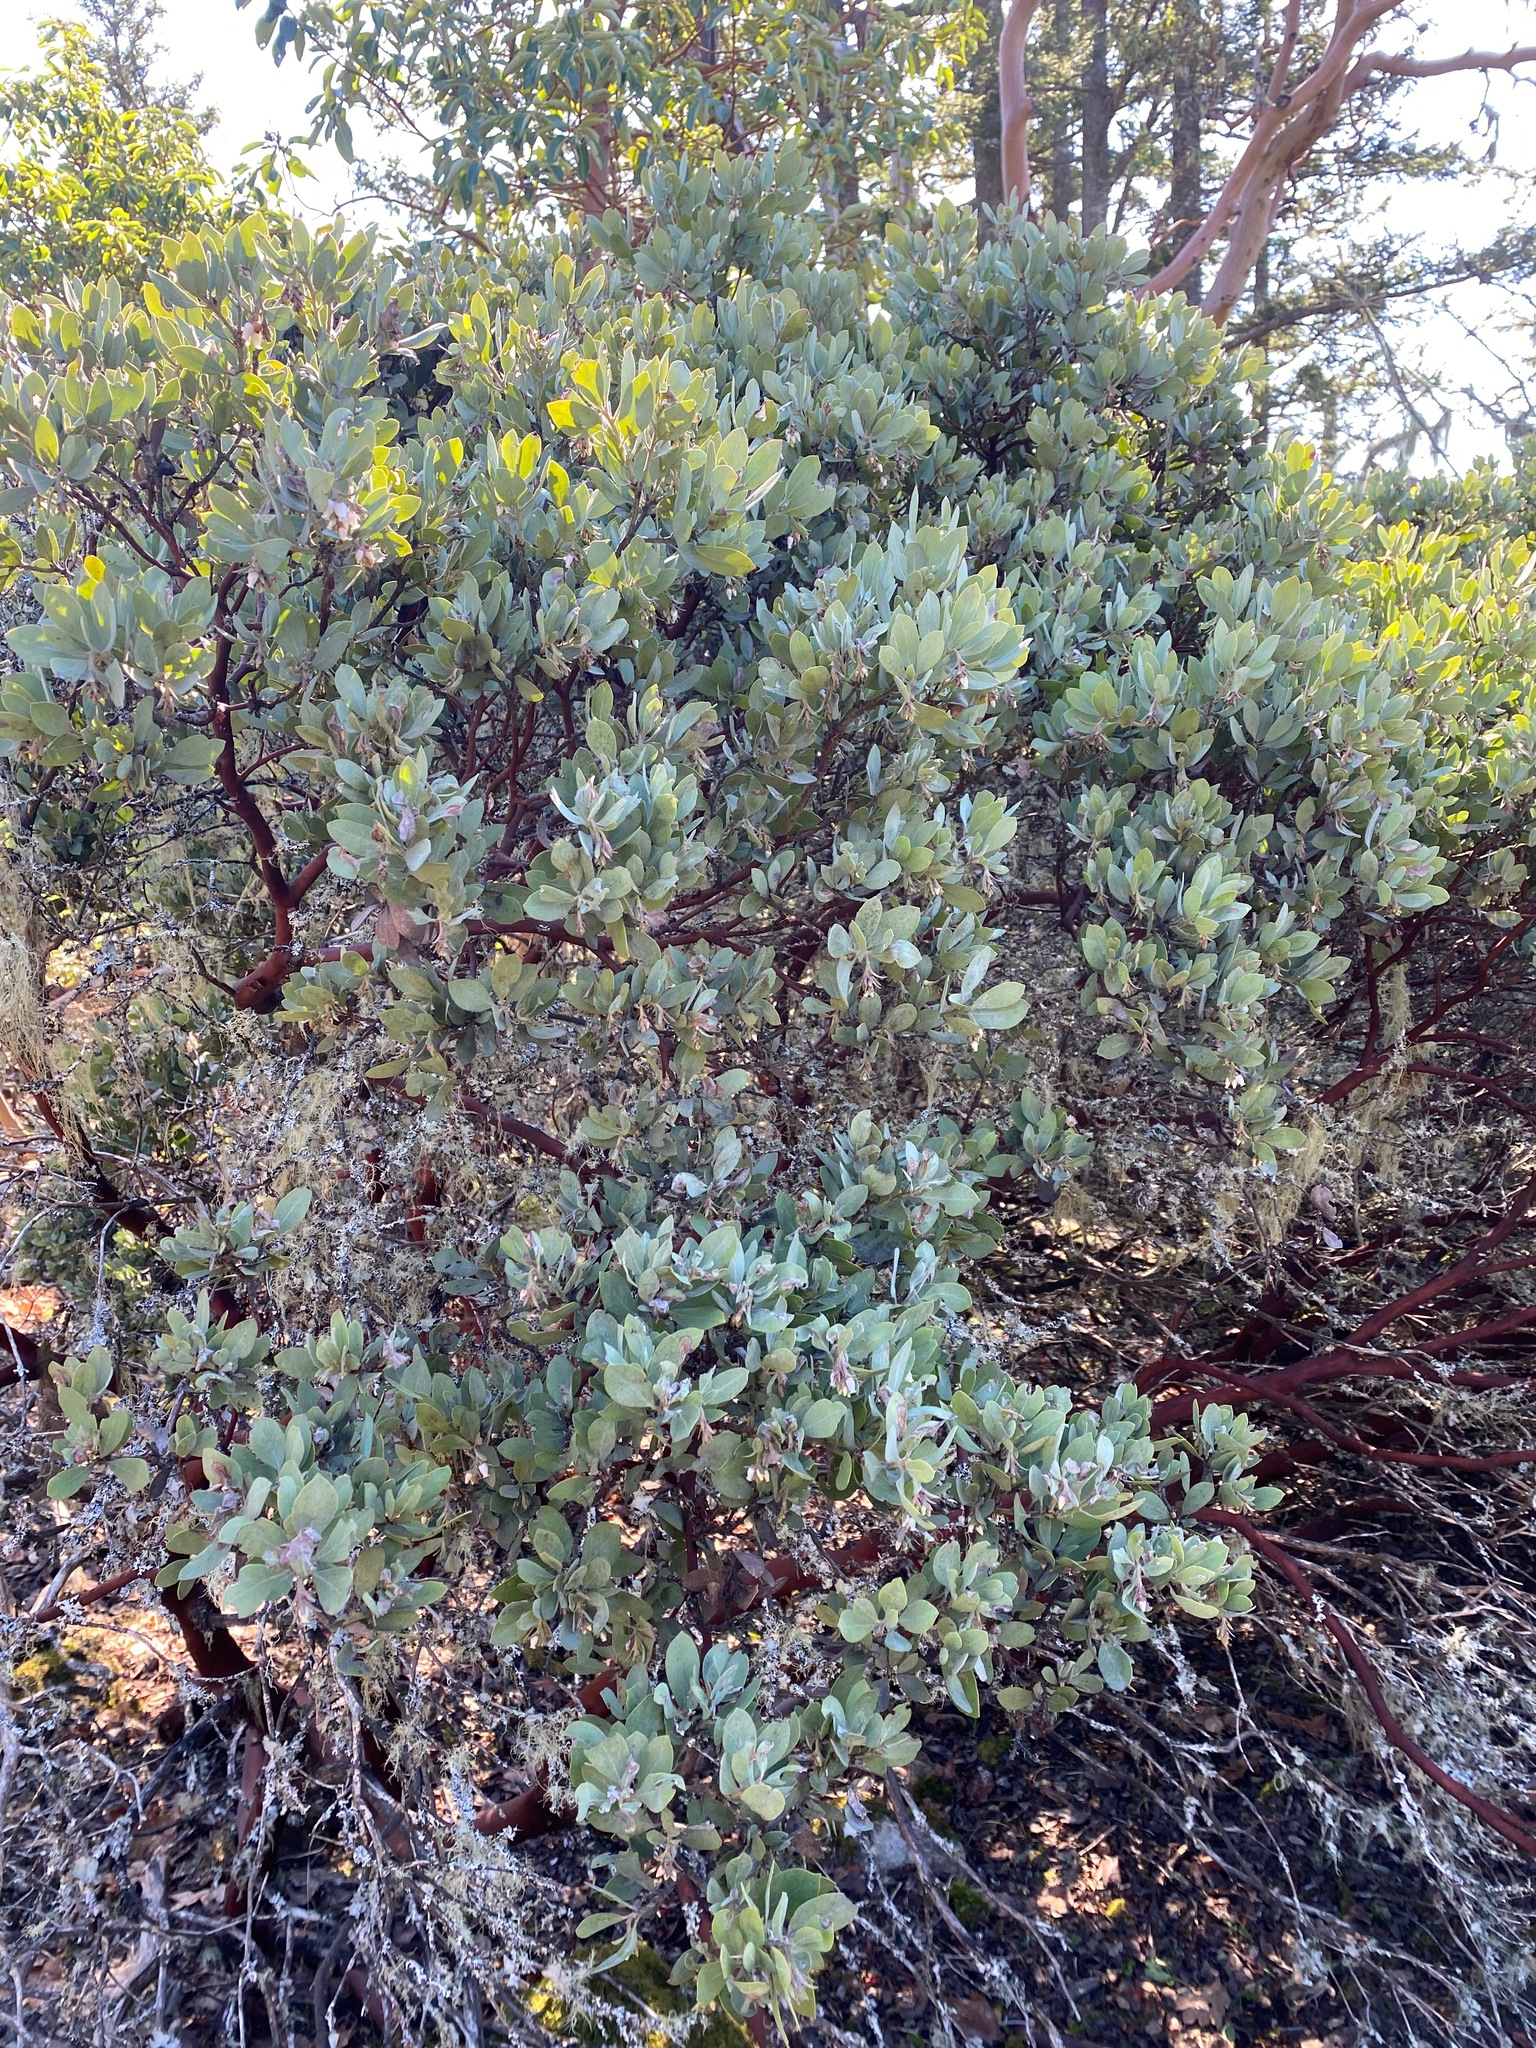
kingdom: Plantae
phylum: Tracheophyta
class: Magnoliopsida
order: Ericales
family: Ericaceae
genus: Arctostaphylos
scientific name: Arctostaphylos columbiana
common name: Bristly bearberry
